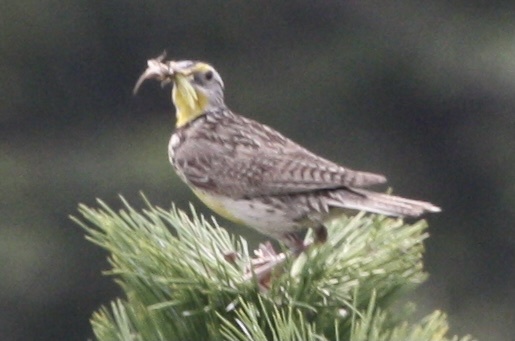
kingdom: Animalia
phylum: Chordata
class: Aves
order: Passeriformes
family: Icteridae
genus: Sturnella
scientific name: Sturnella neglecta
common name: Western meadowlark
